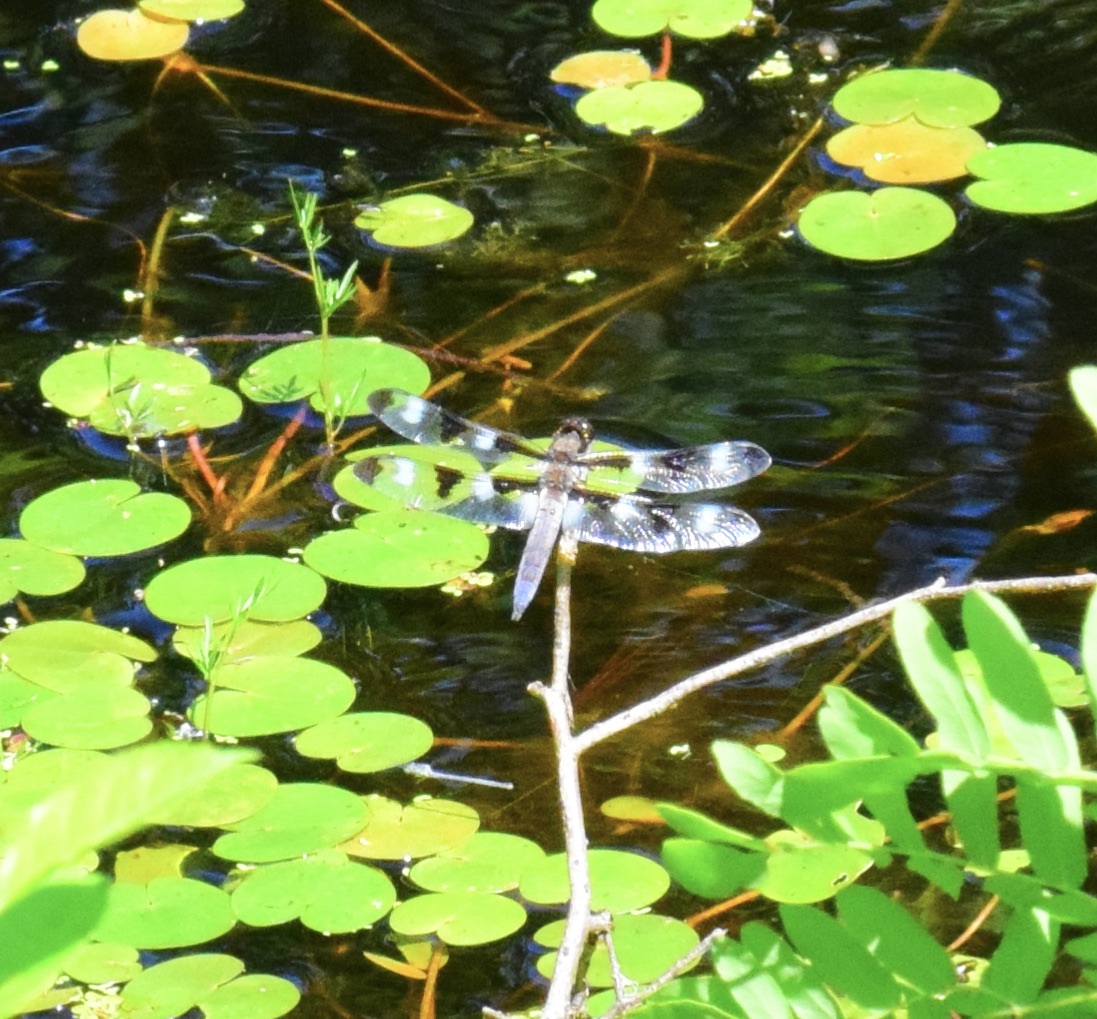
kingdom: Animalia
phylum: Arthropoda
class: Insecta
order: Odonata
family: Libellulidae
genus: Libellula
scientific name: Libellula pulchella
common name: Twelve-spotted skimmer
